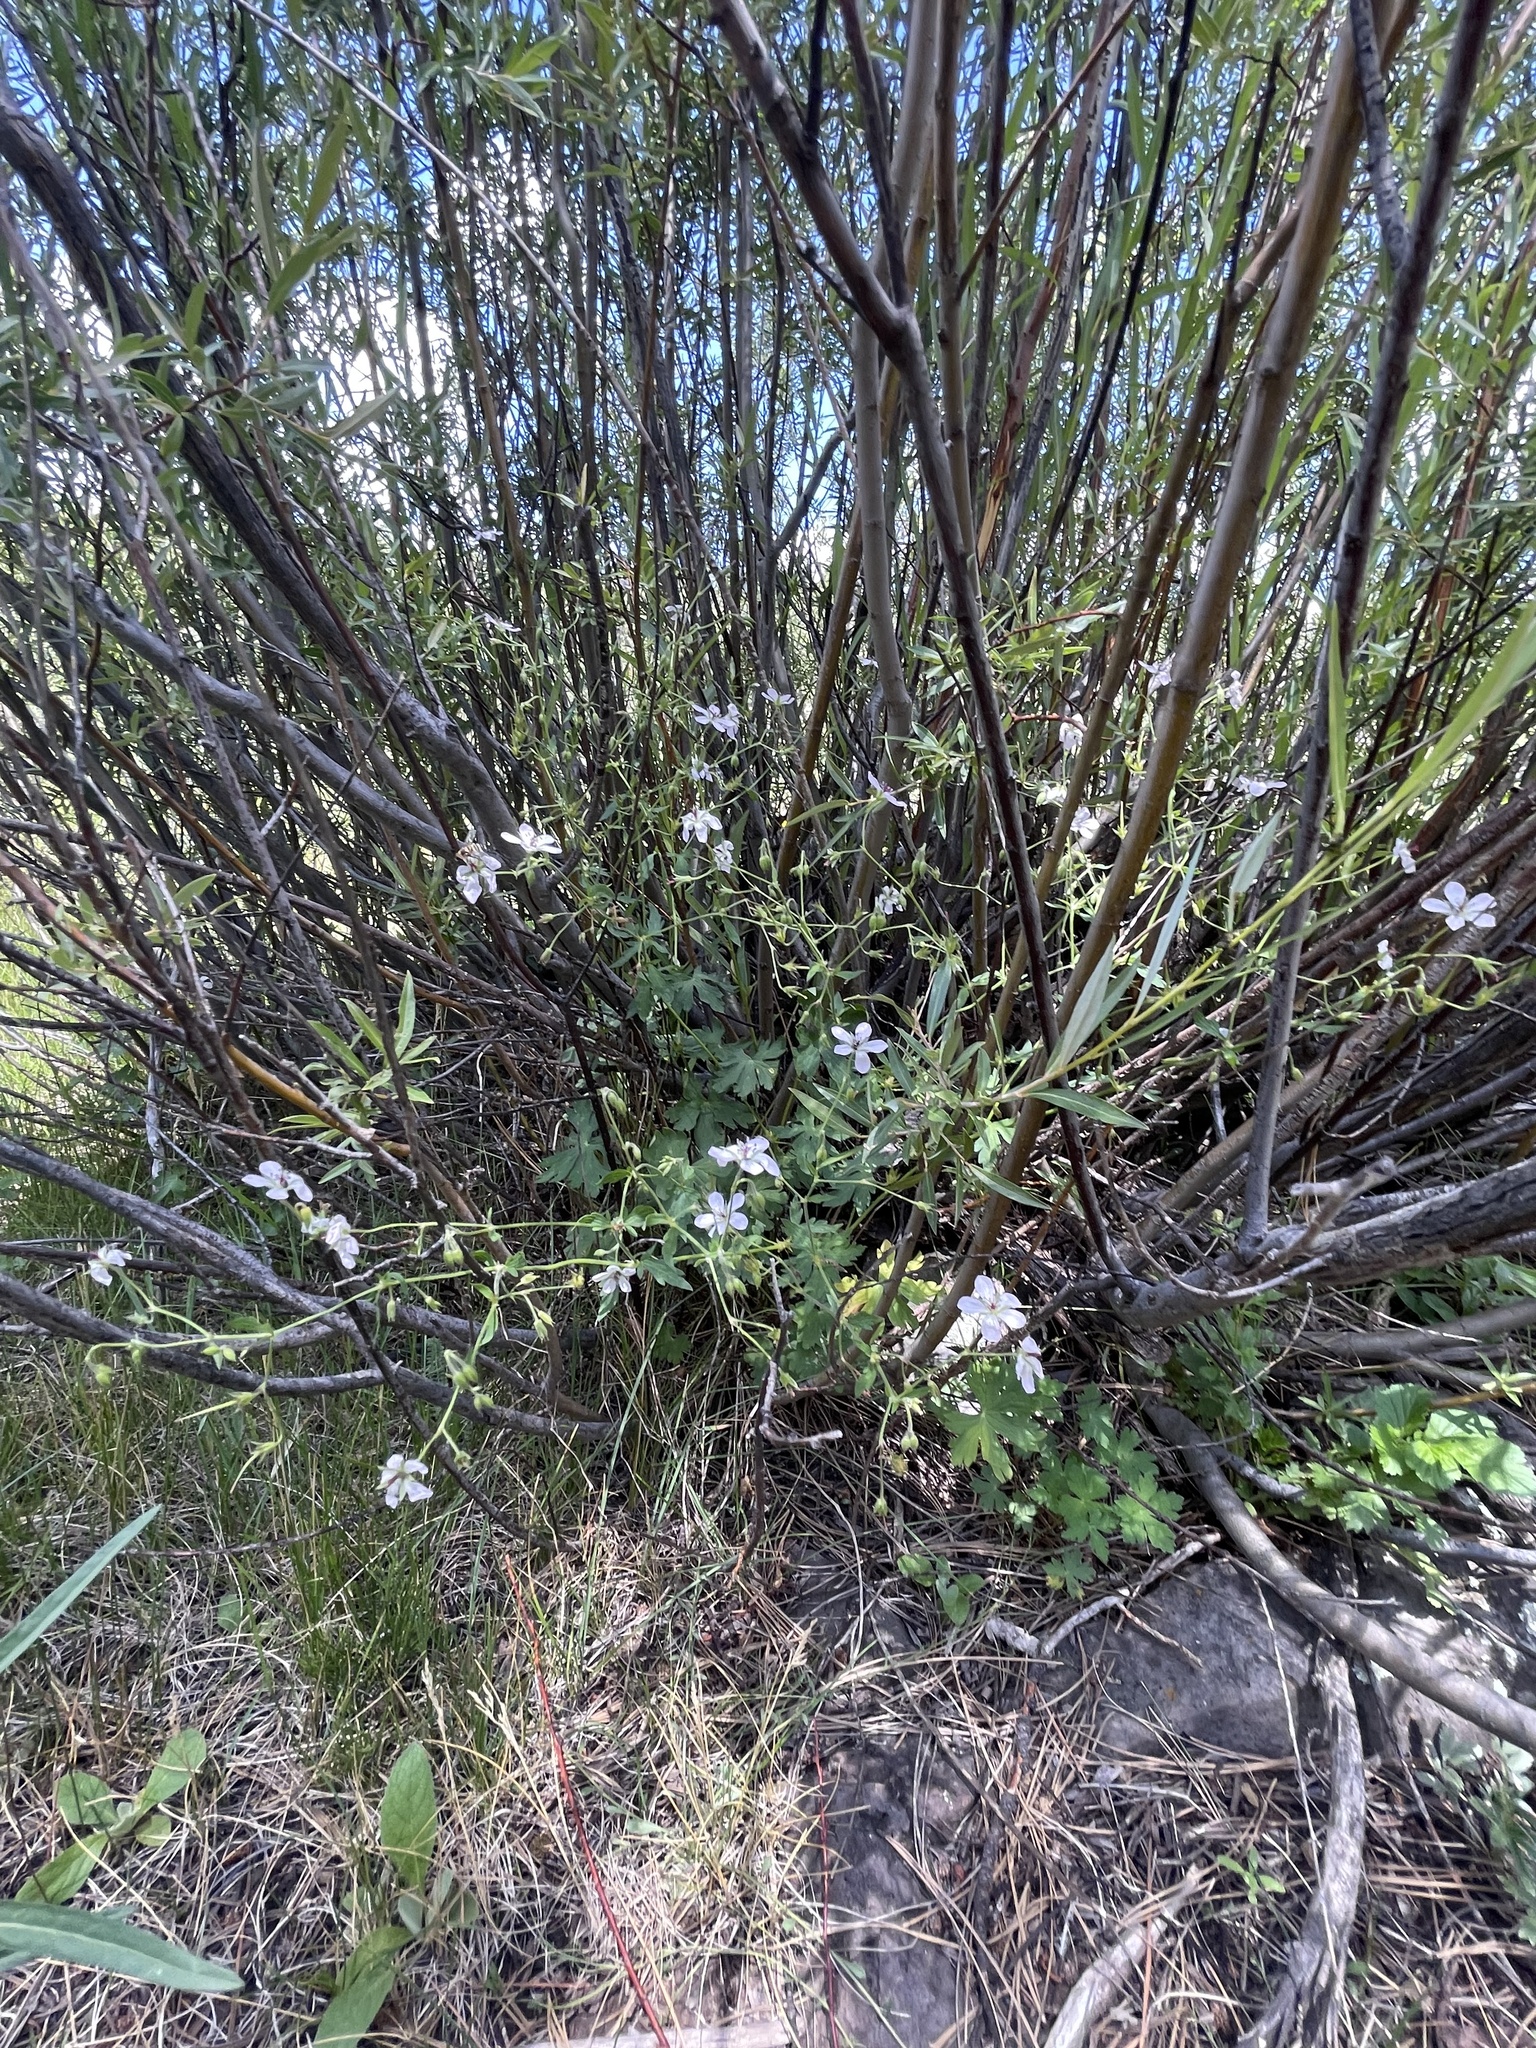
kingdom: Plantae
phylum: Tracheophyta
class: Magnoliopsida
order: Geraniales
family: Geraniaceae
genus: Geranium
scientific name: Geranium richardsonii
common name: Richardson's crane's-bill
